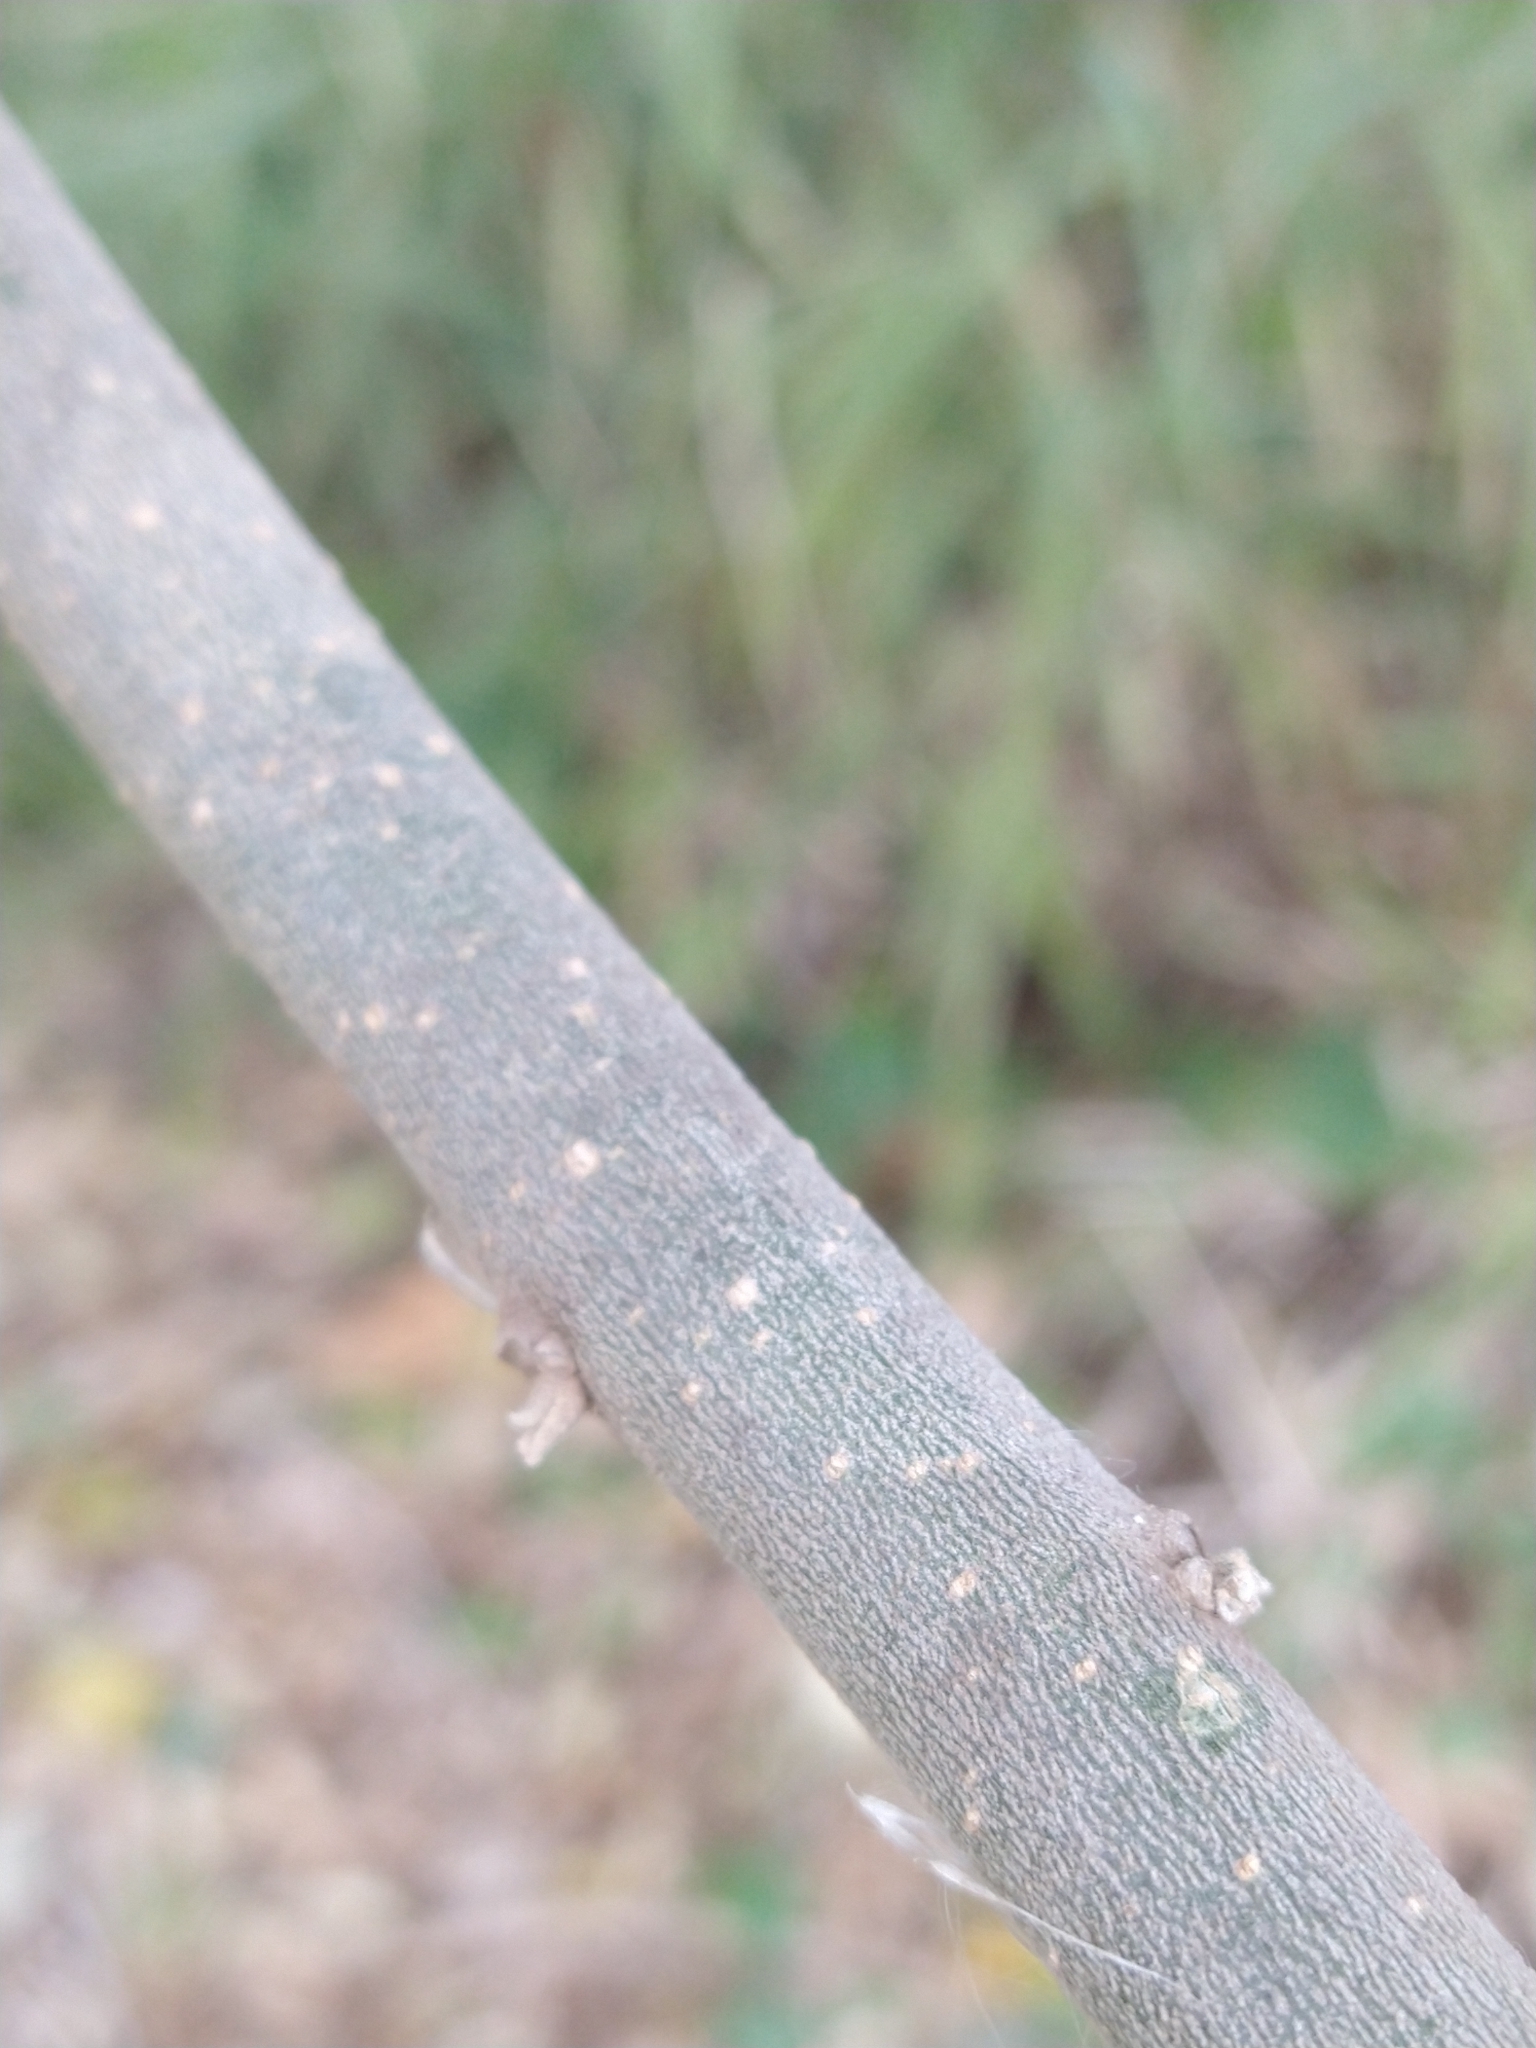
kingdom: Plantae
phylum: Tracheophyta
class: Magnoliopsida
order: Solanales
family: Solanaceae
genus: Solanum
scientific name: Solanum granulosoleprosum
